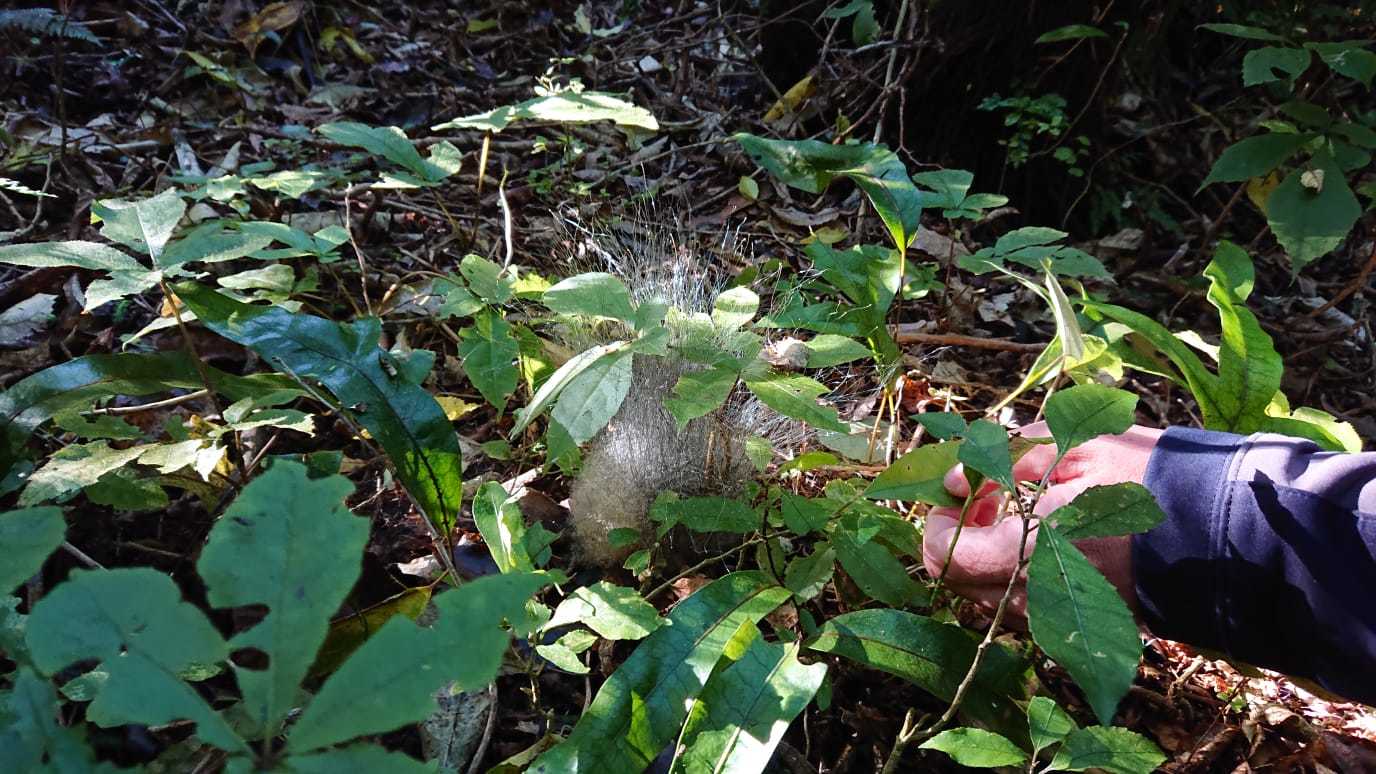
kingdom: Fungi
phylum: Mucoromycota
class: Mucoromycetes
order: Mucorales
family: Phycomycetaceae
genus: Phycomyces
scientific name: Phycomyces
